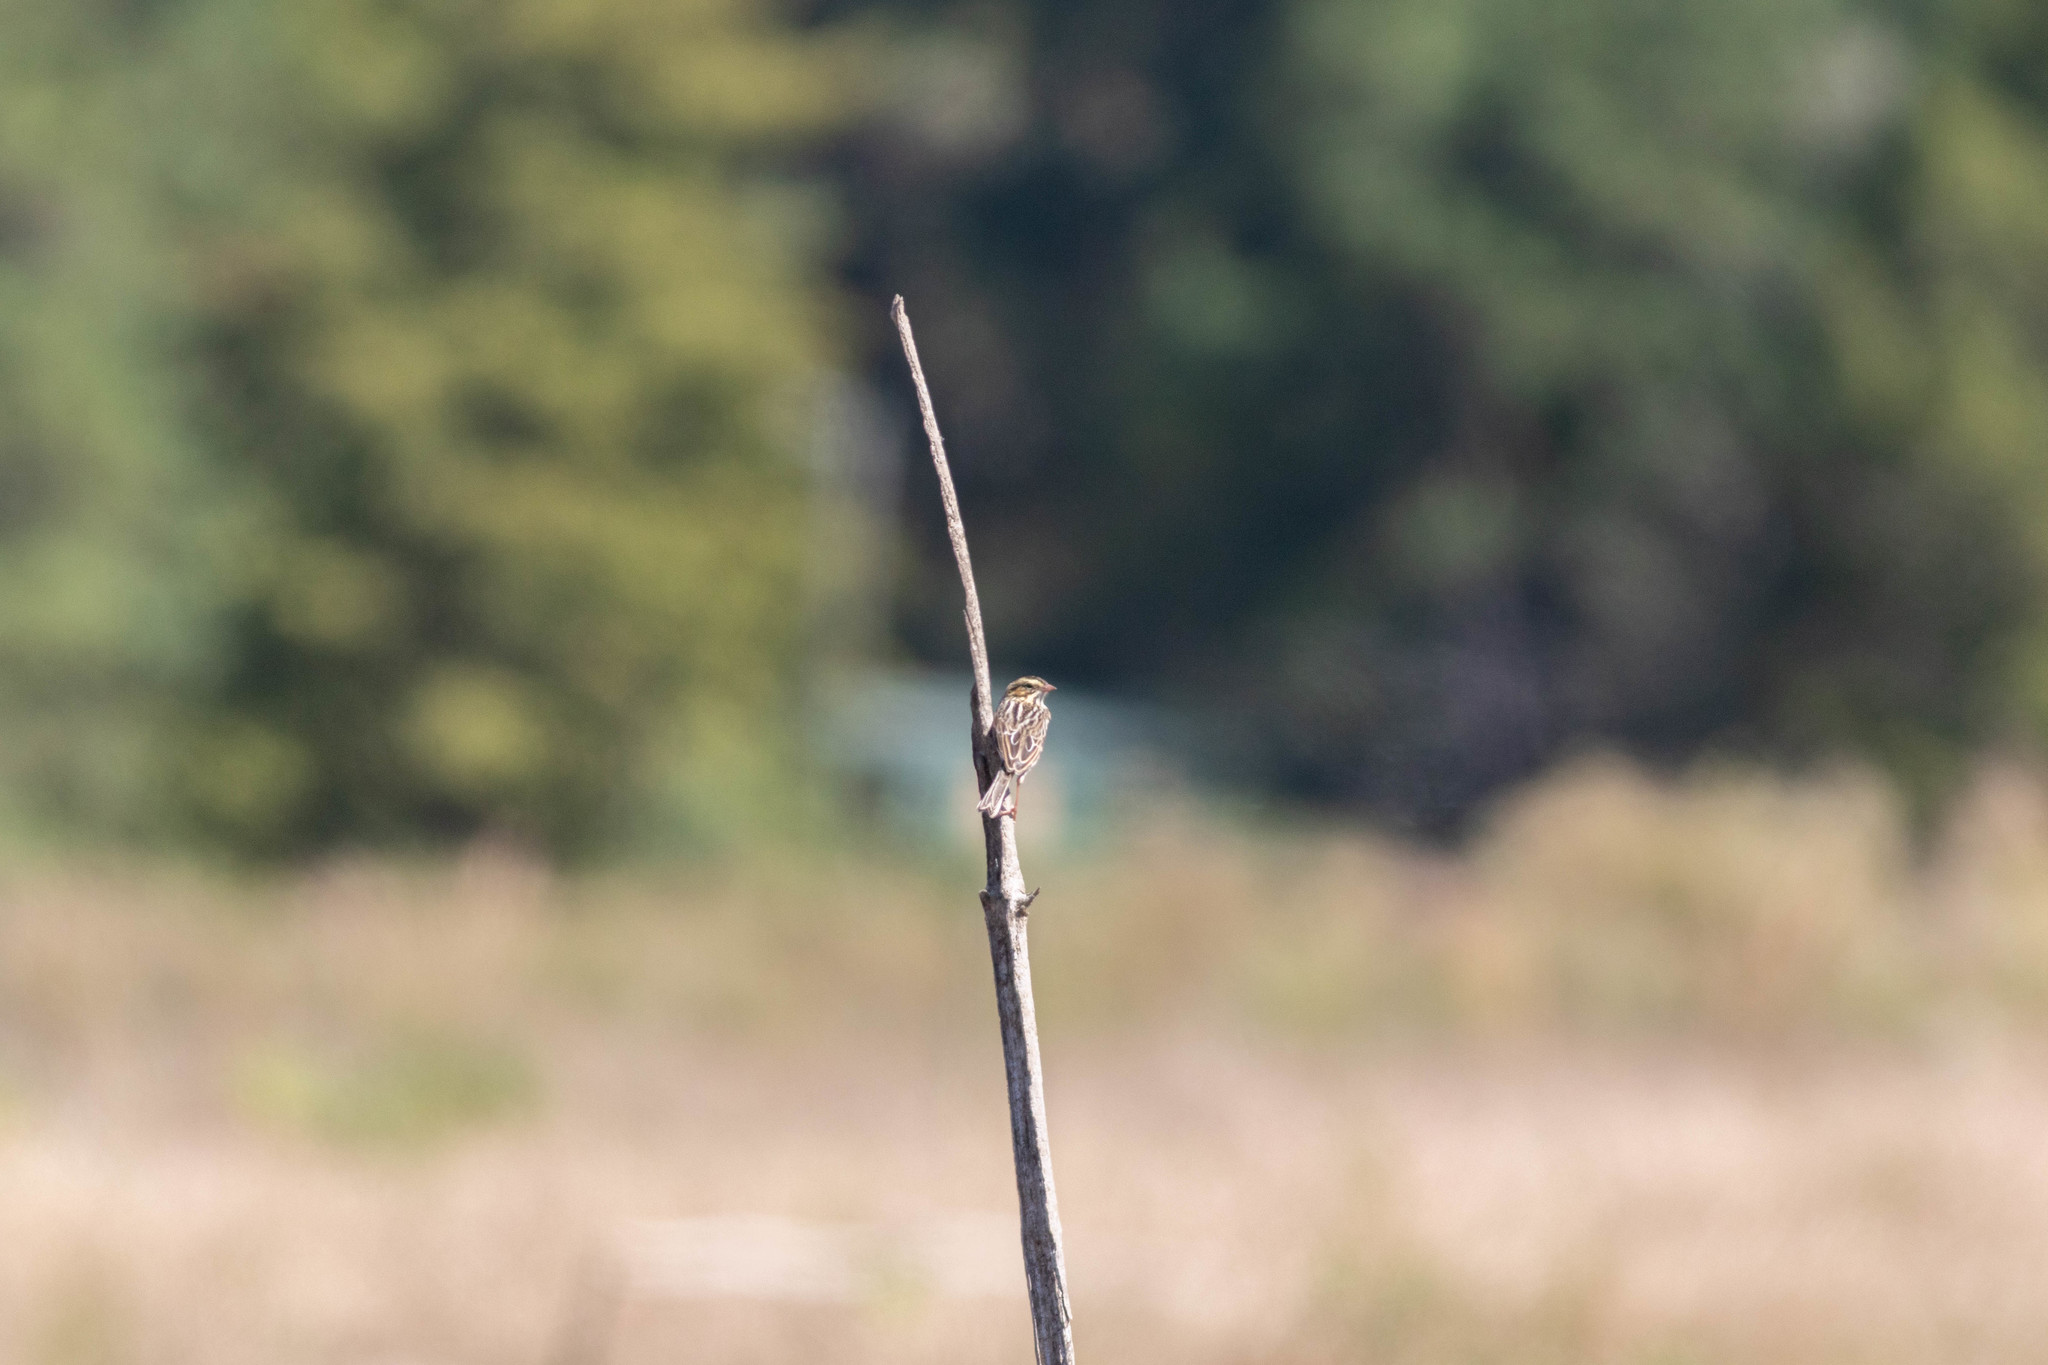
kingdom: Animalia
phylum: Chordata
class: Aves
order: Passeriformes
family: Passerellidae
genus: Passerculus
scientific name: Passerculus sandwichensis
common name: Savannah sparrow
